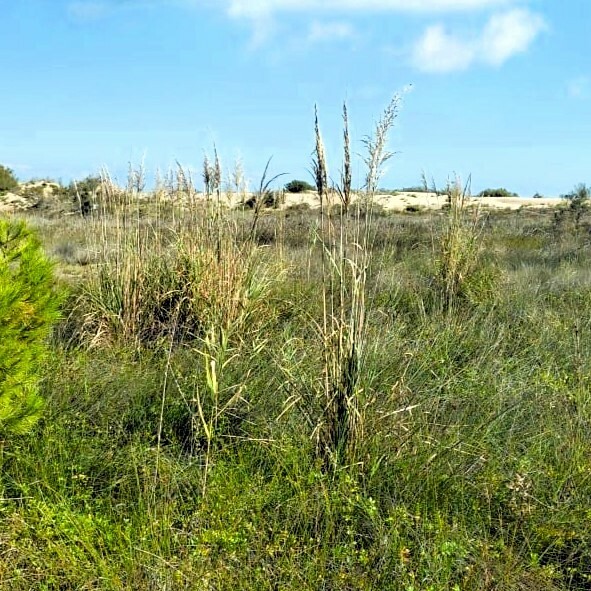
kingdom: Plantae
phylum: Tracheophyta
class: Liliopsida
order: Poales
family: Poaceae
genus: Cortaderia
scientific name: Cortaderia selloana
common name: Uruguayan pampas grass
